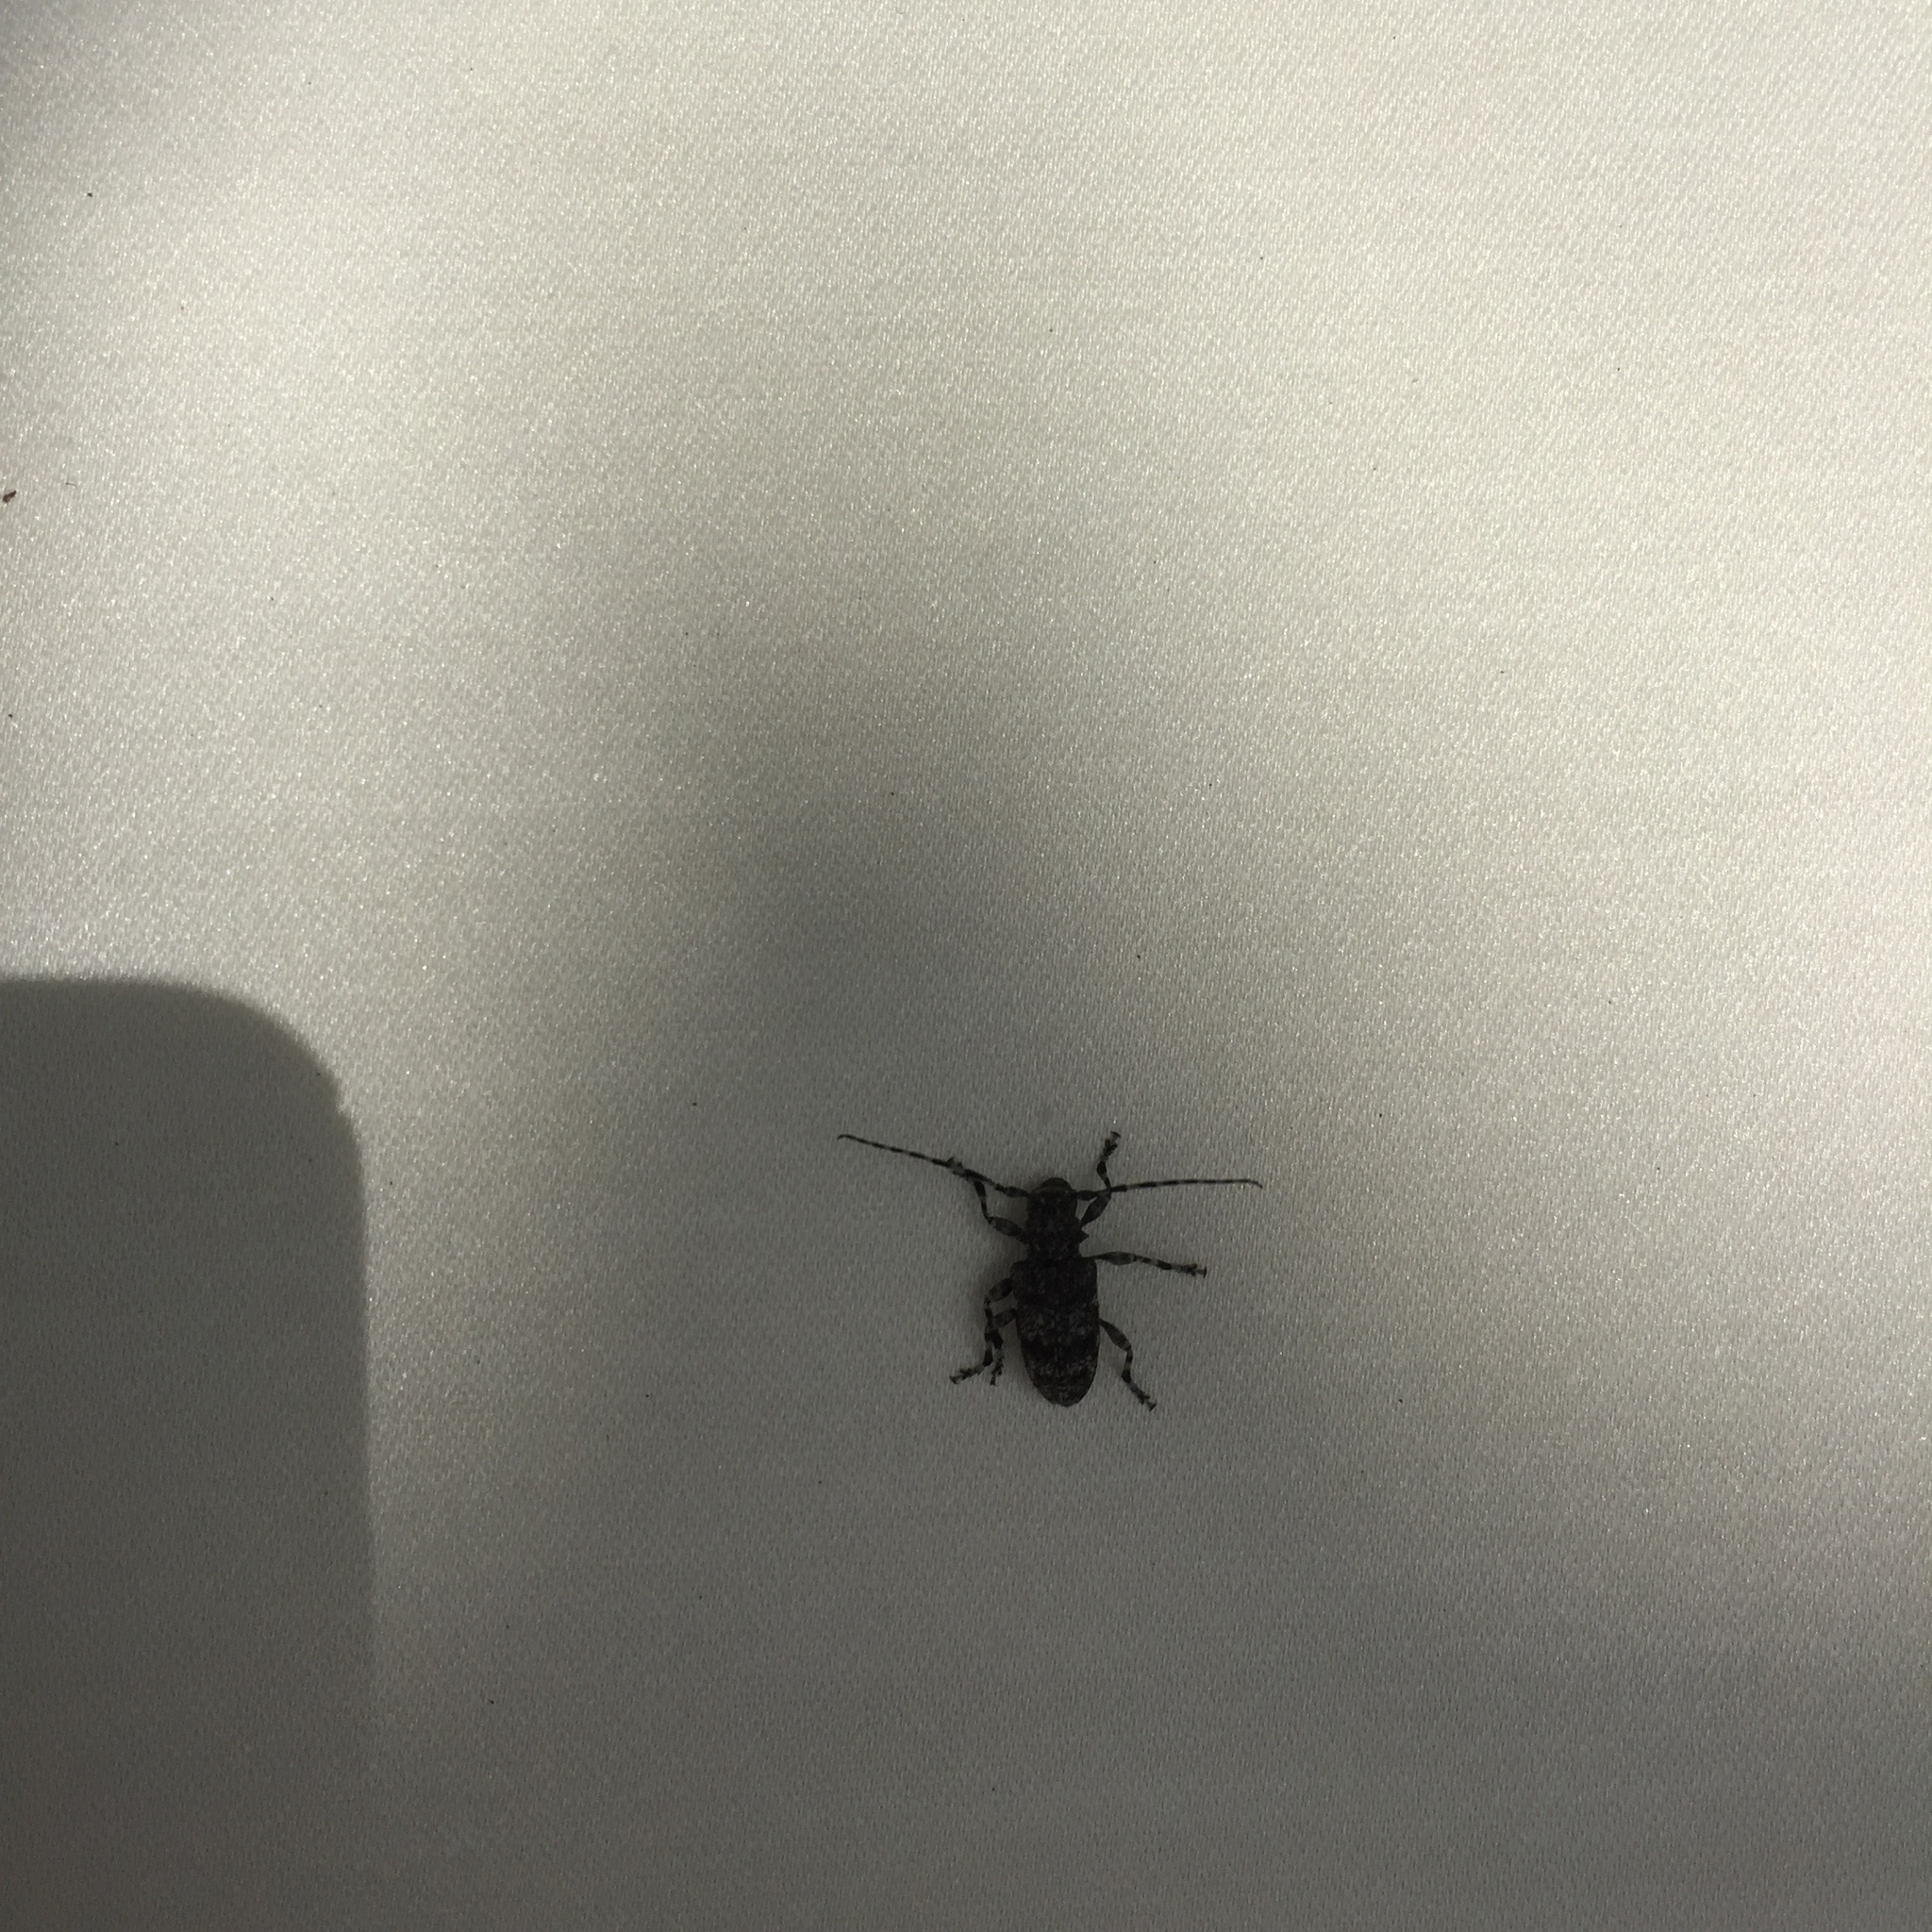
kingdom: Animalia
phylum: Arthropoda
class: Insecta
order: Coleoptera
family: Cerambycidae
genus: Aegomorphus
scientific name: Aegomorphus clavipes
